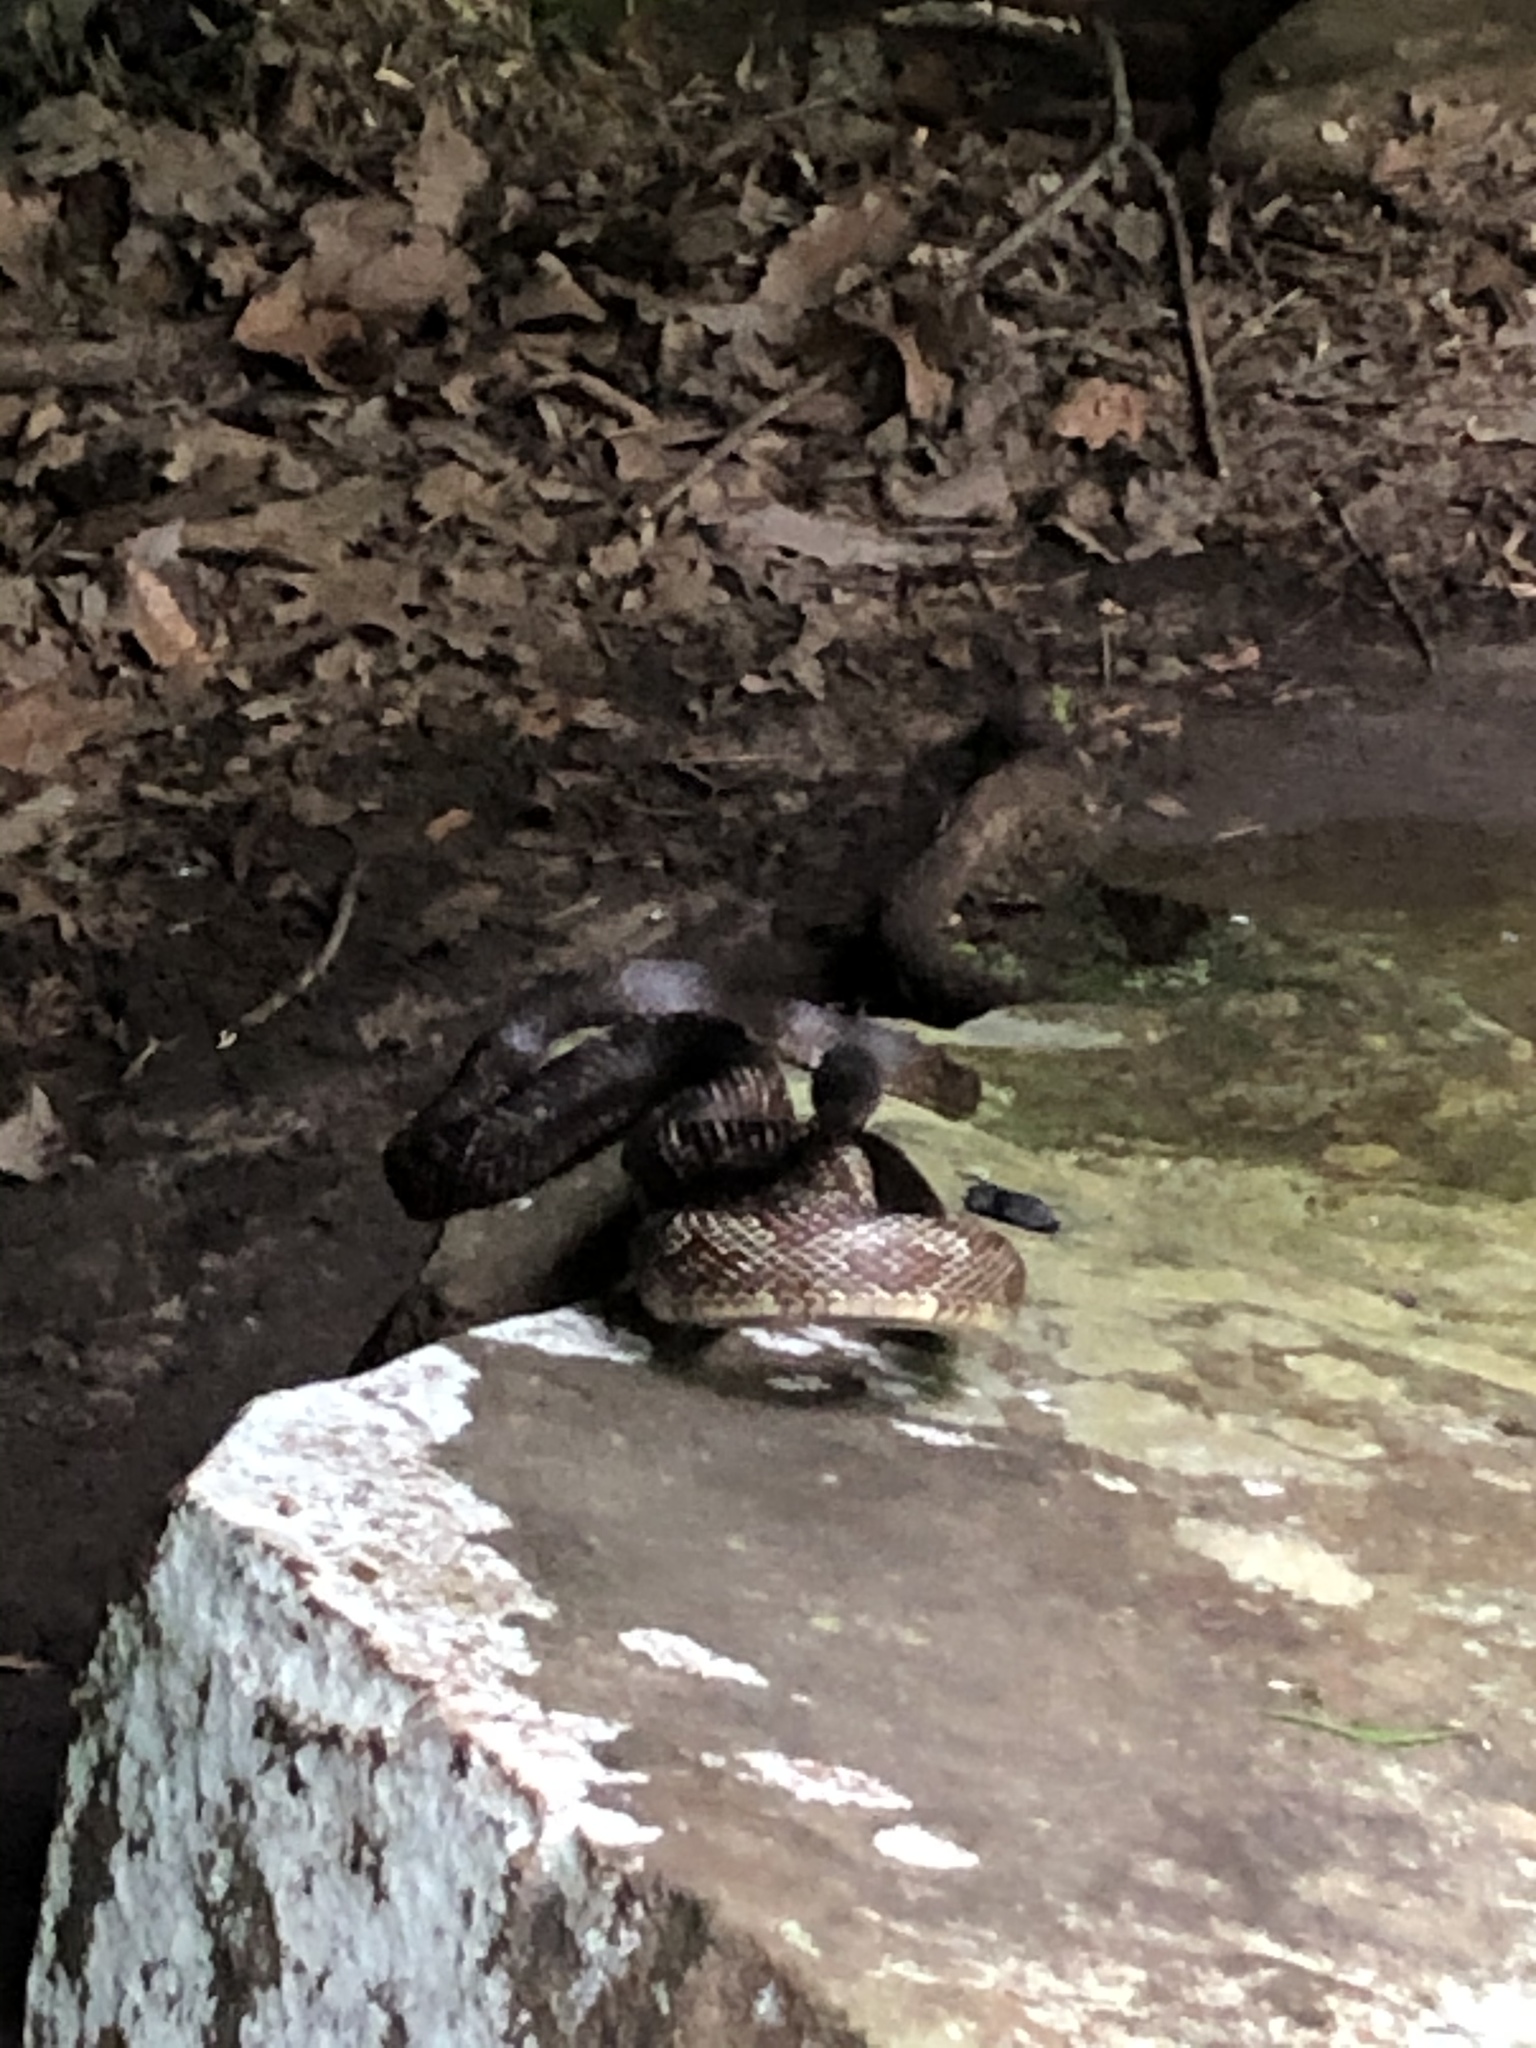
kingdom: Animalia
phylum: Chordata
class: Squamata
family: Colubridae
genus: Pantherophis
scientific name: Pantherophis spiloides
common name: Gray rat snake
